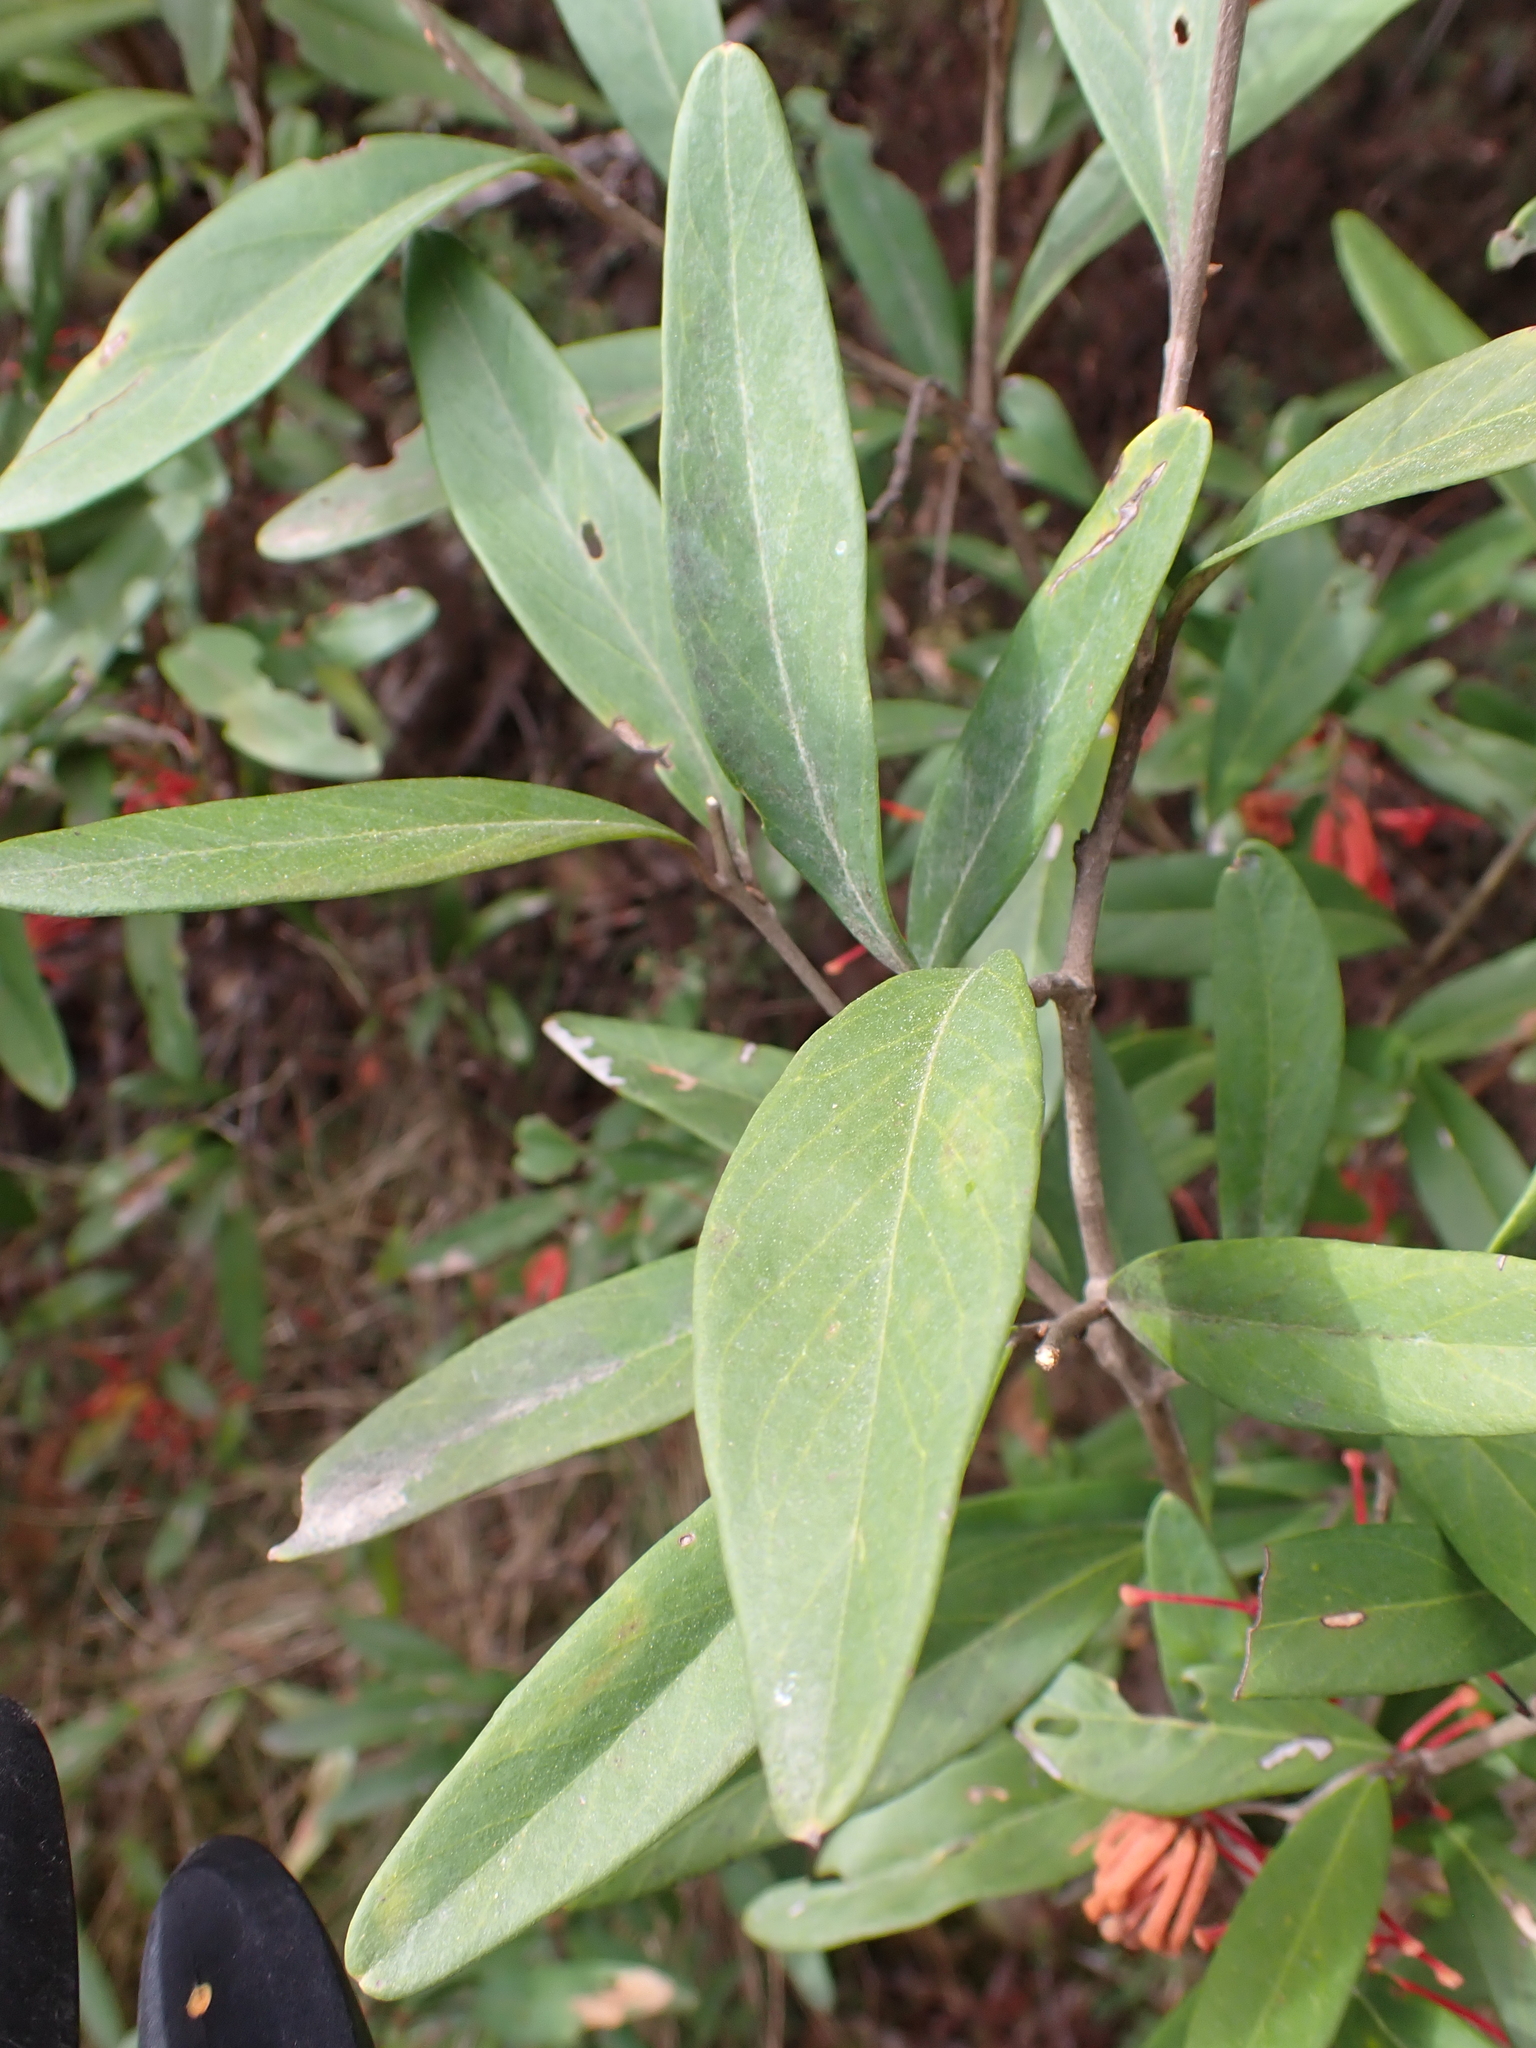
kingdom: Plantae
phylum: Tracheophyta
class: Magnoliopsida
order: Proteales
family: Proteaceae
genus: Grevillea
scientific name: Grevillea victoriae
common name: Royal grevillea
